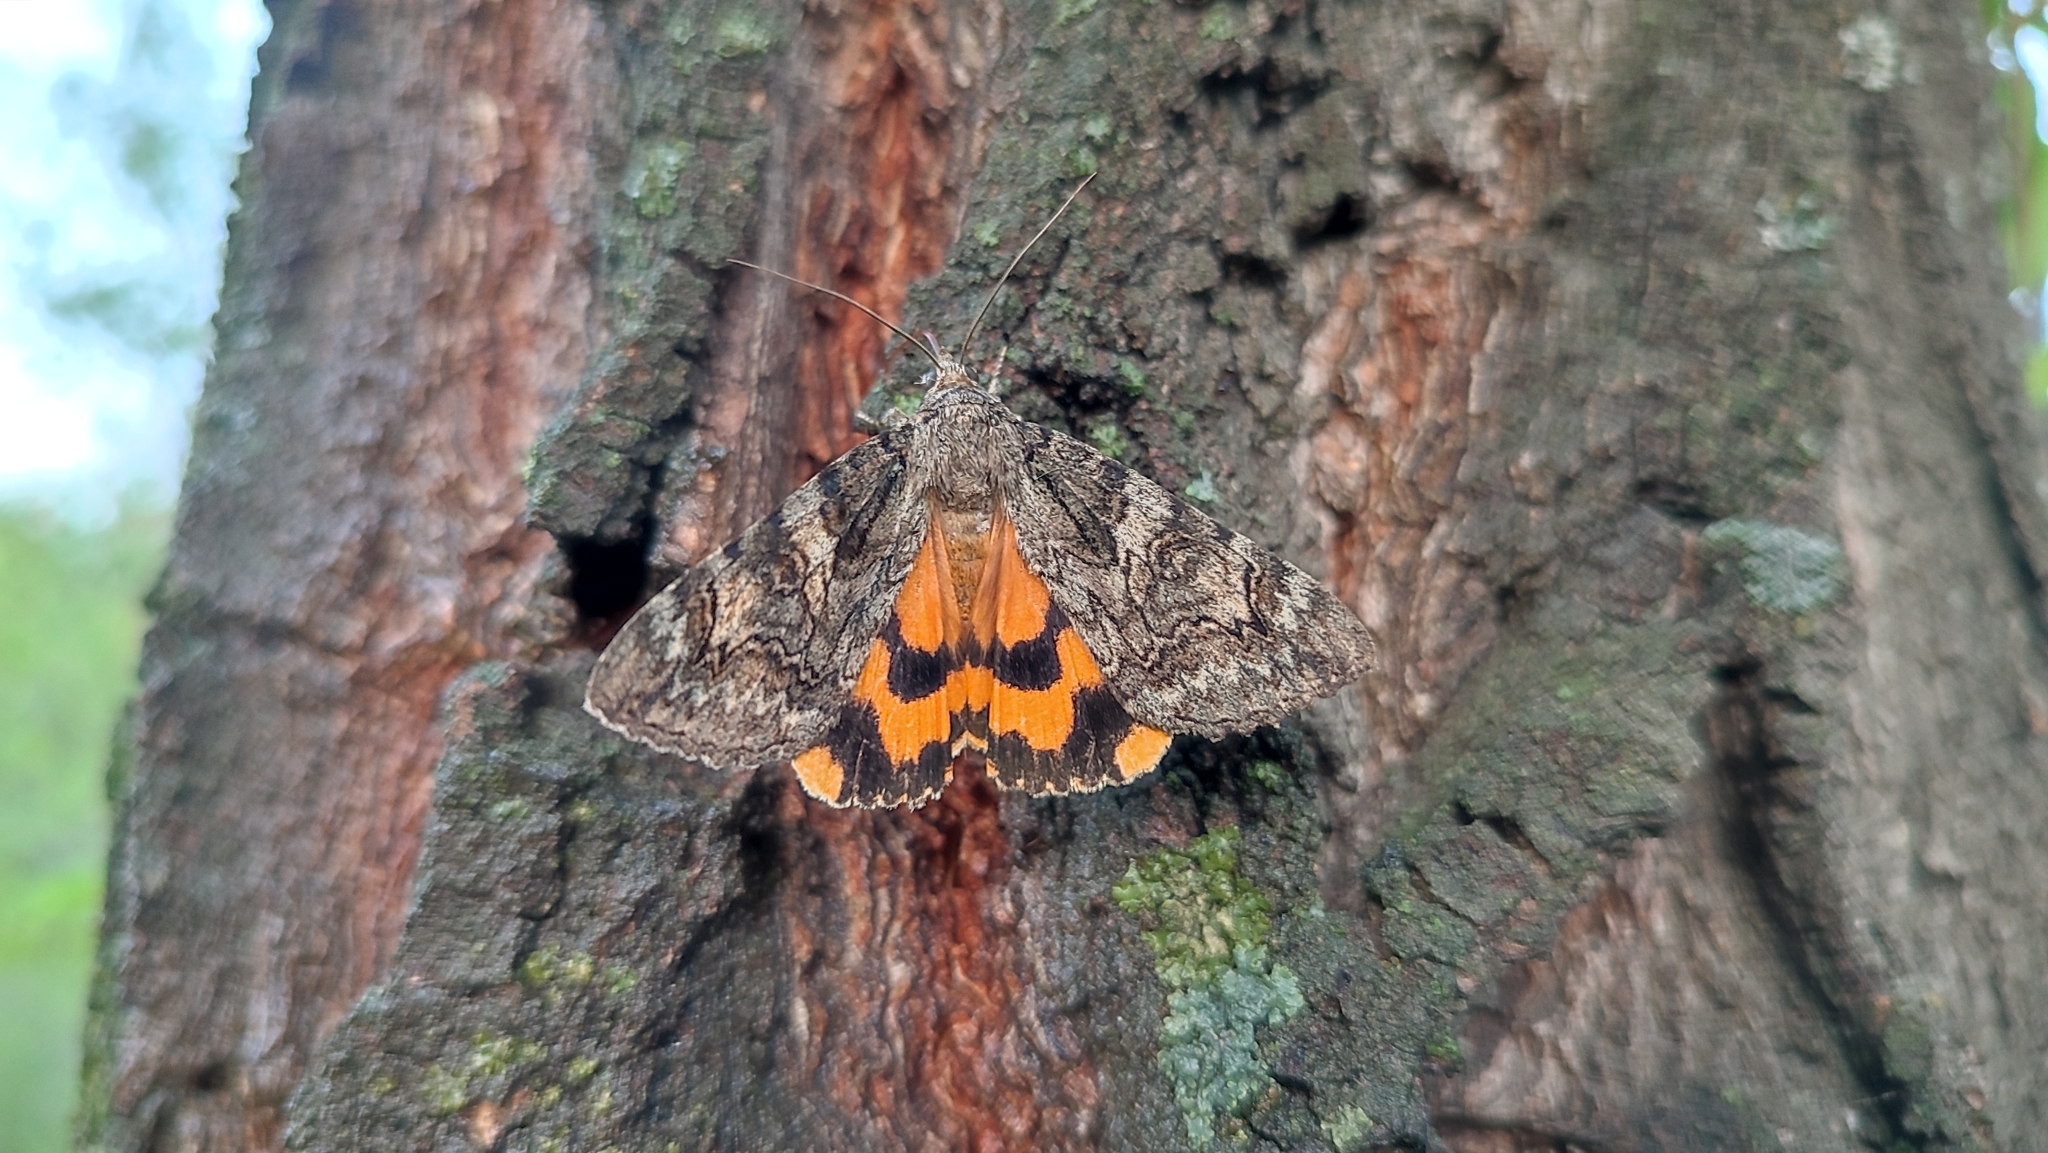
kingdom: Animalia
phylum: Arthropoda
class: Insecta
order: Lepidoptera
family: Erebidae
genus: Catocala
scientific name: Catocala helena
